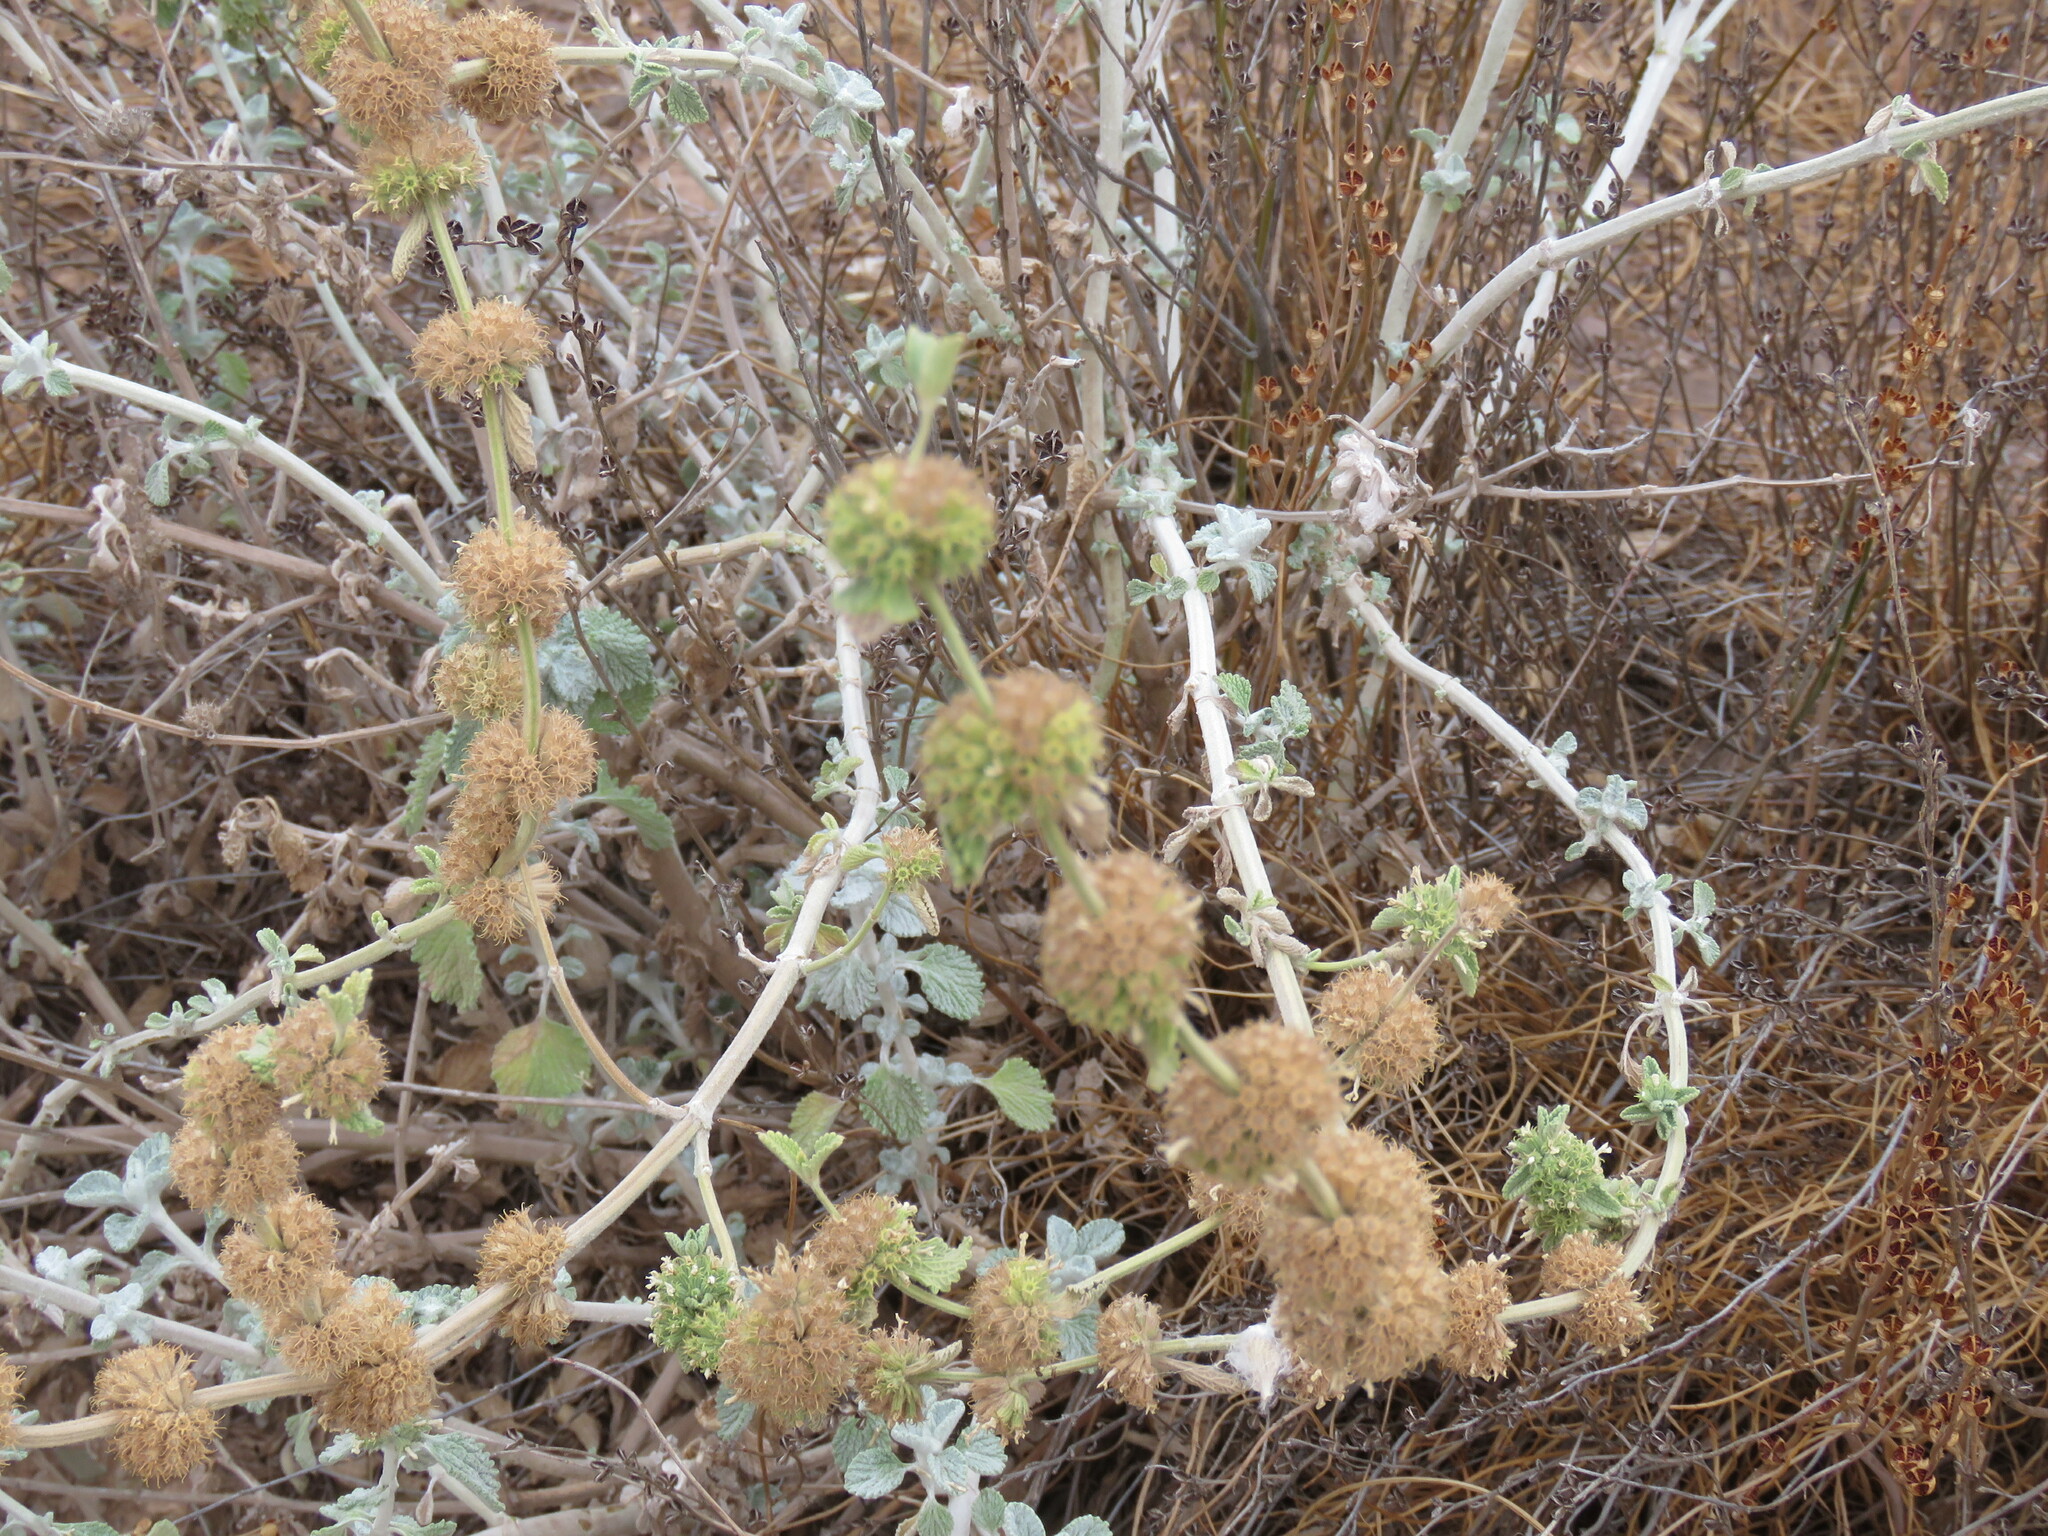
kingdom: Plantae
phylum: Tracheophyta
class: Magnoliopsida
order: Lamiales
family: Lamiaceae
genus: Marrubium
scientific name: Marrubium vulgare
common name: Horehound
